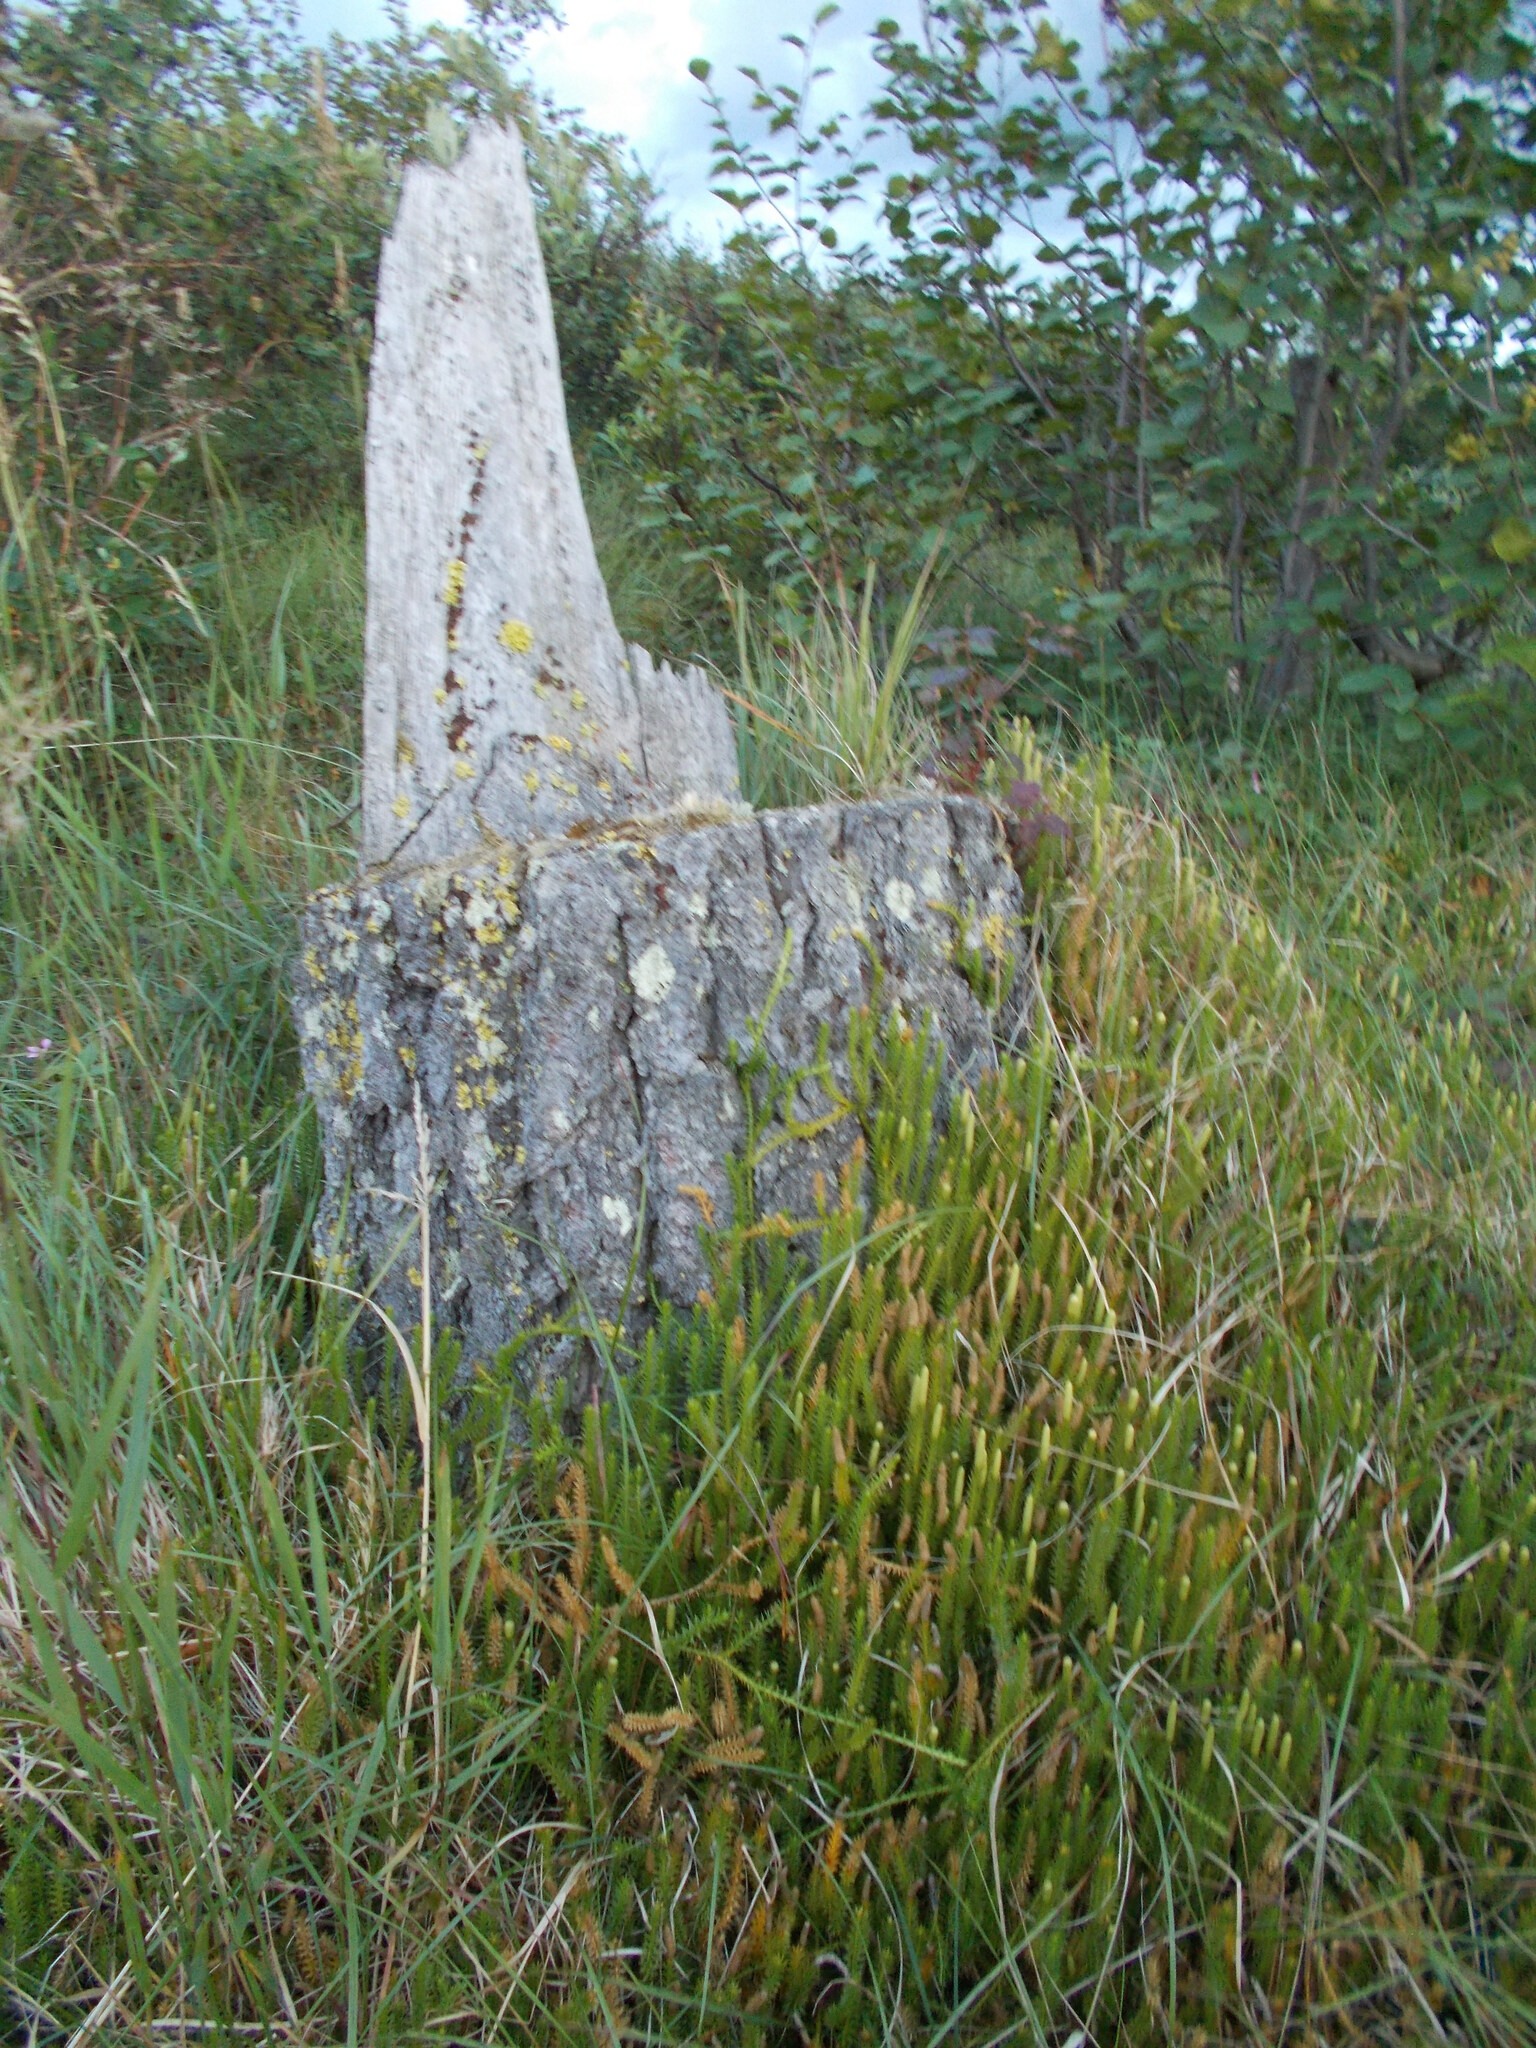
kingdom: Plantae
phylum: Tracheophyta
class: Lycopodiopsida
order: Lycopodiales
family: Lycopodiaceae
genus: Spinulum
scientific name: Spinulum annotinum
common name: Interrupted club-moss
